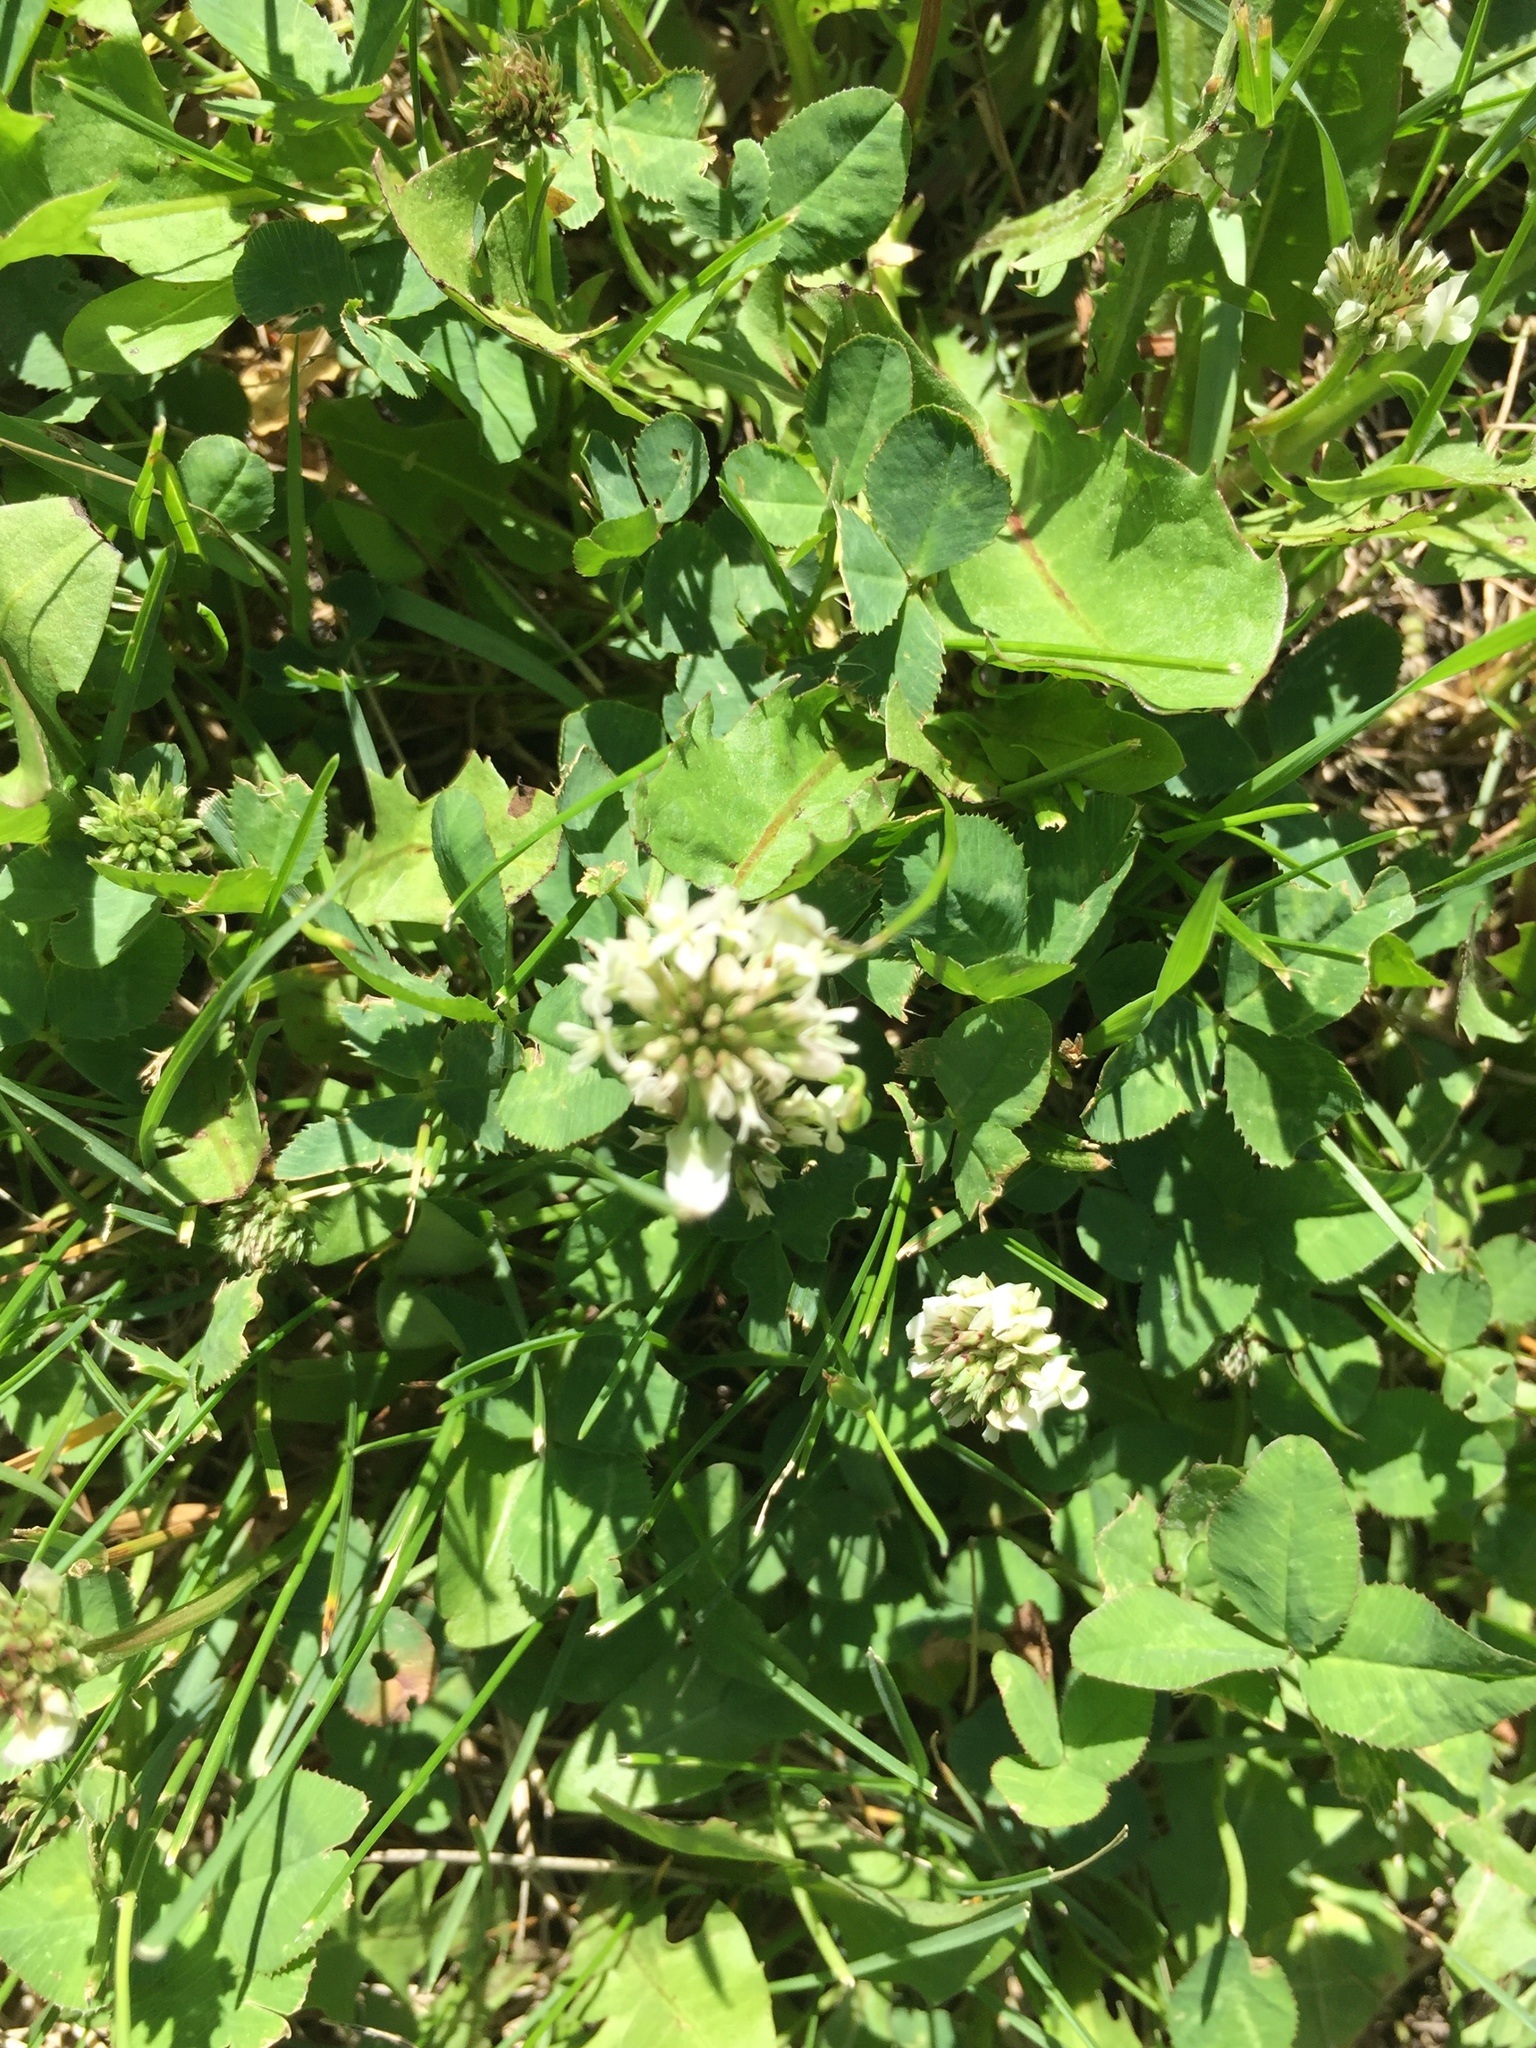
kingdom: Plantae
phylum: Tracheophyta
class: Magnoliopsida
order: Fabales
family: Fabaceae
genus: Trifolium
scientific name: Trifolium repens
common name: White clover
